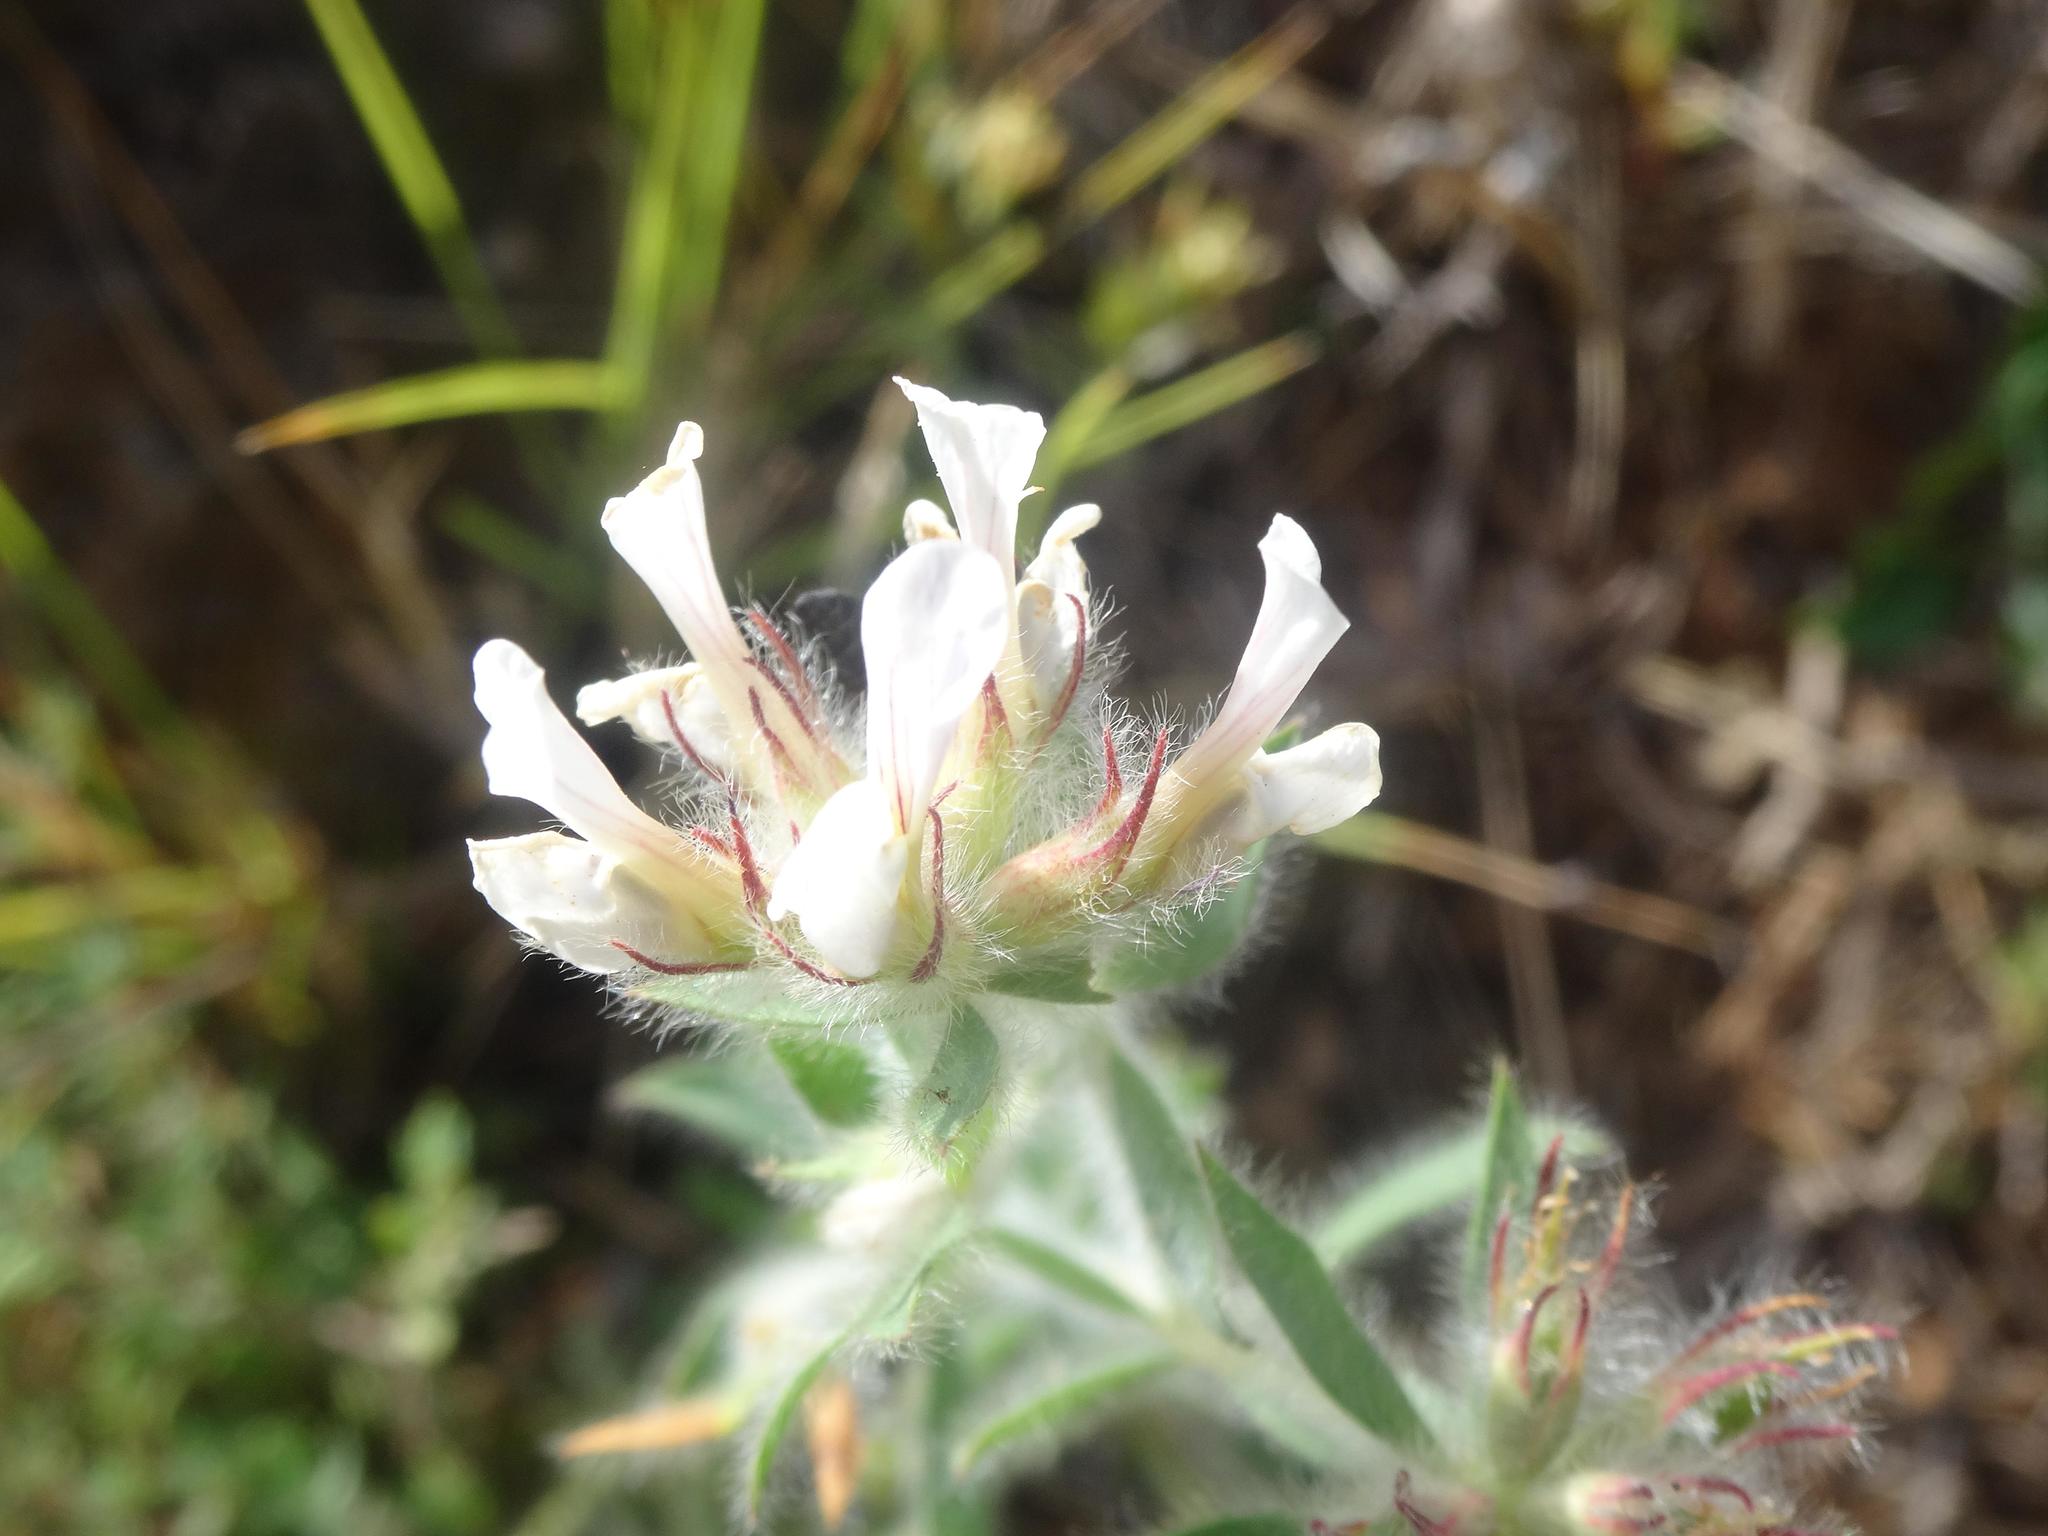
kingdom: Plantae
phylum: Tracheophyta
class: Magnoliopsida
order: Fabales
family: Fabaceae
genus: Lotus
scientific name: Lotus hirsutus
